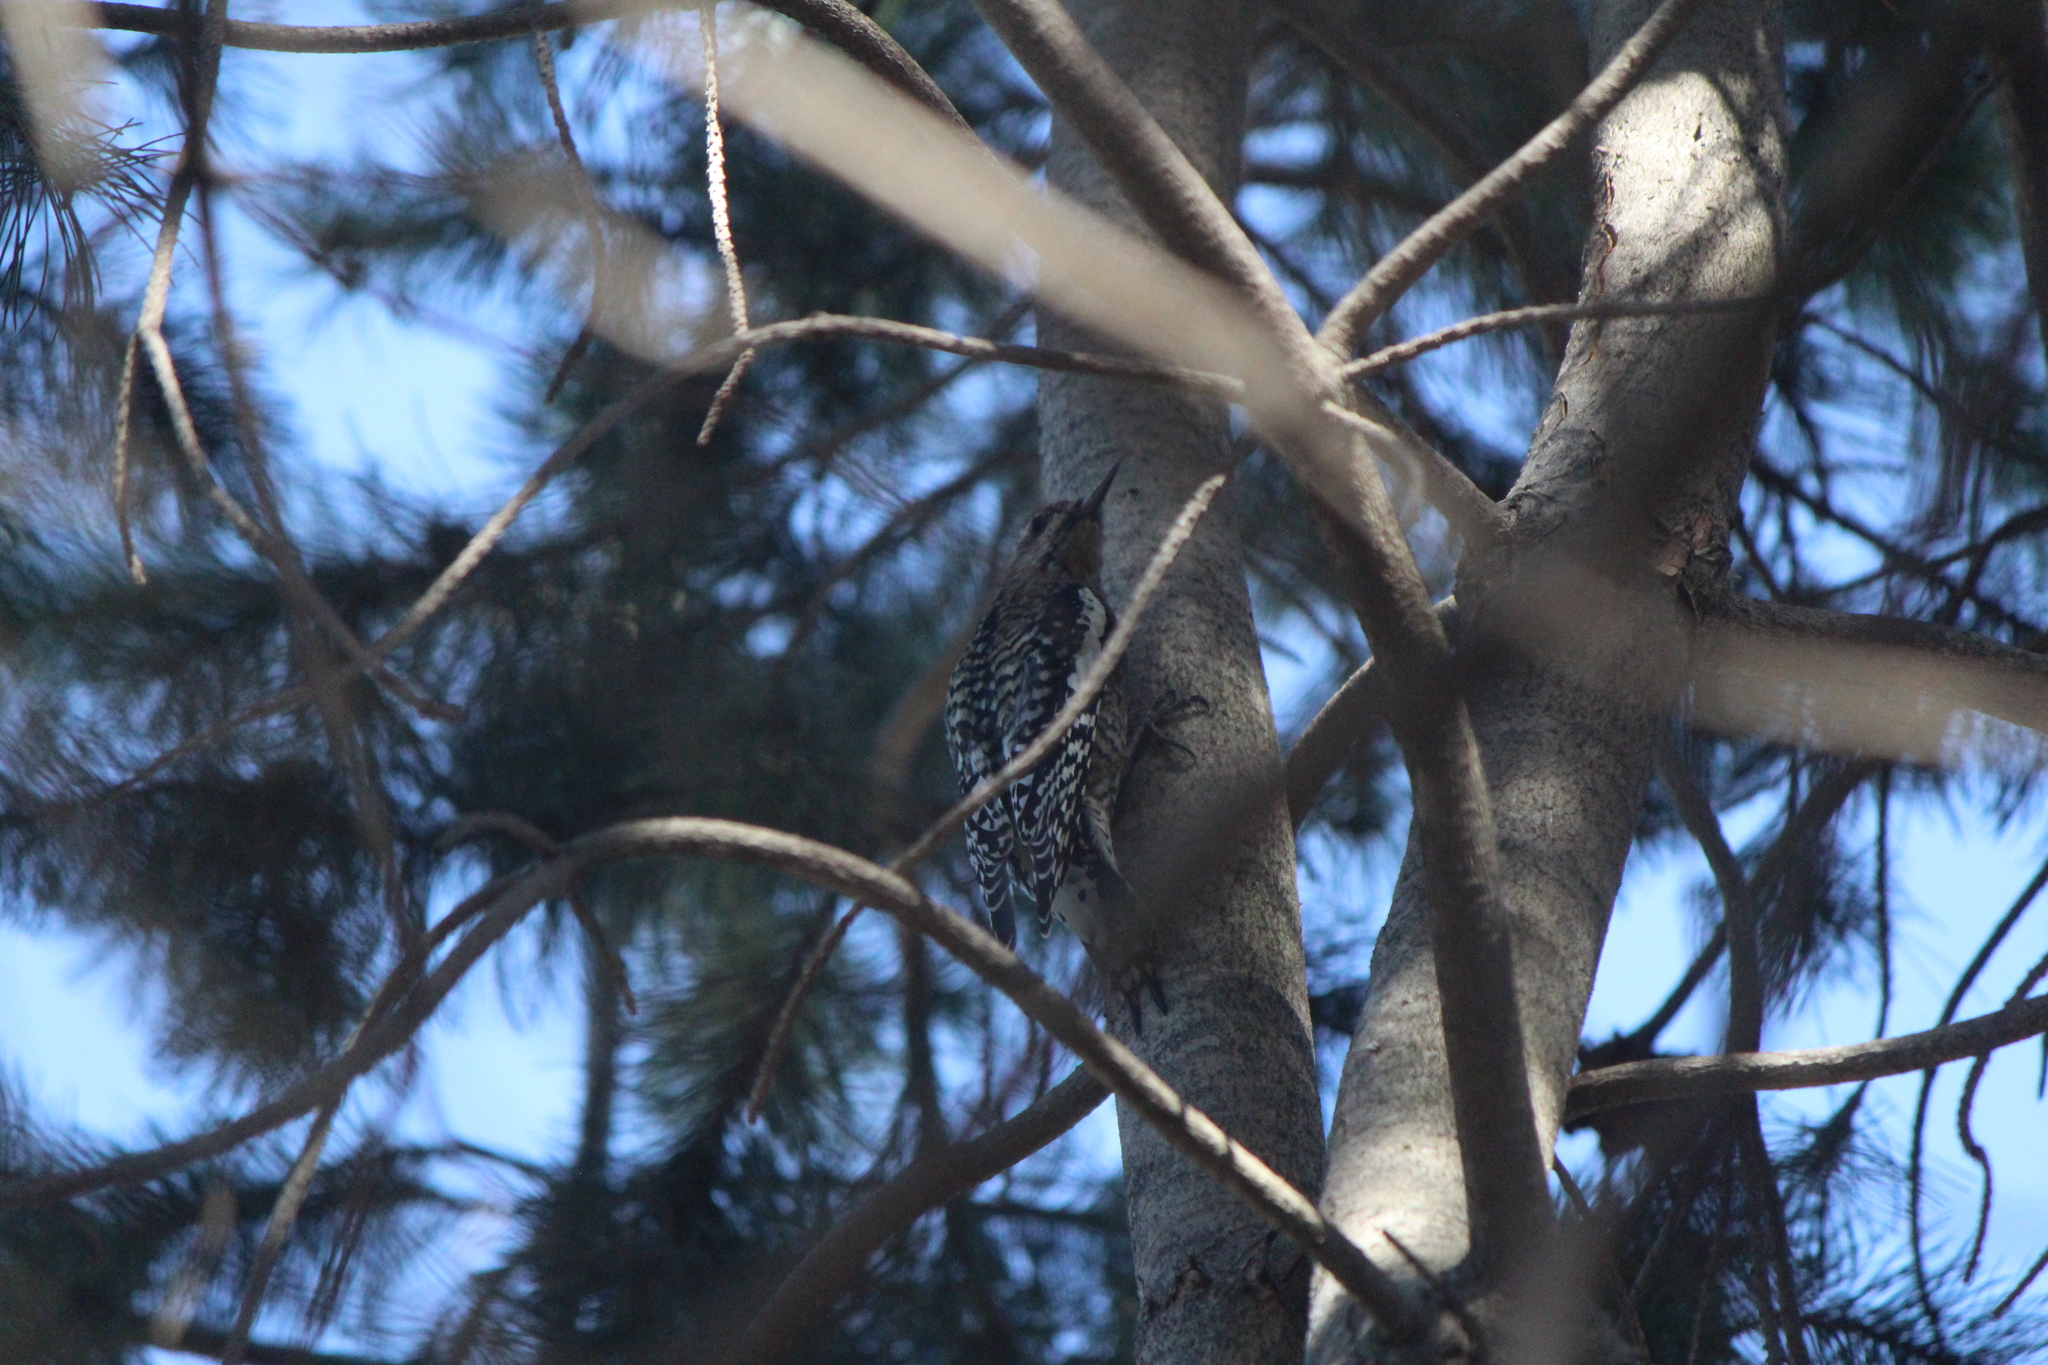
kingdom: Animalia
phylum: Chordata
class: Aves
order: Piciformes
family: Picidae
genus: Sphyrapicus
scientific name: Sphyrapicus varius
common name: Yellow-bellied sapsucker
